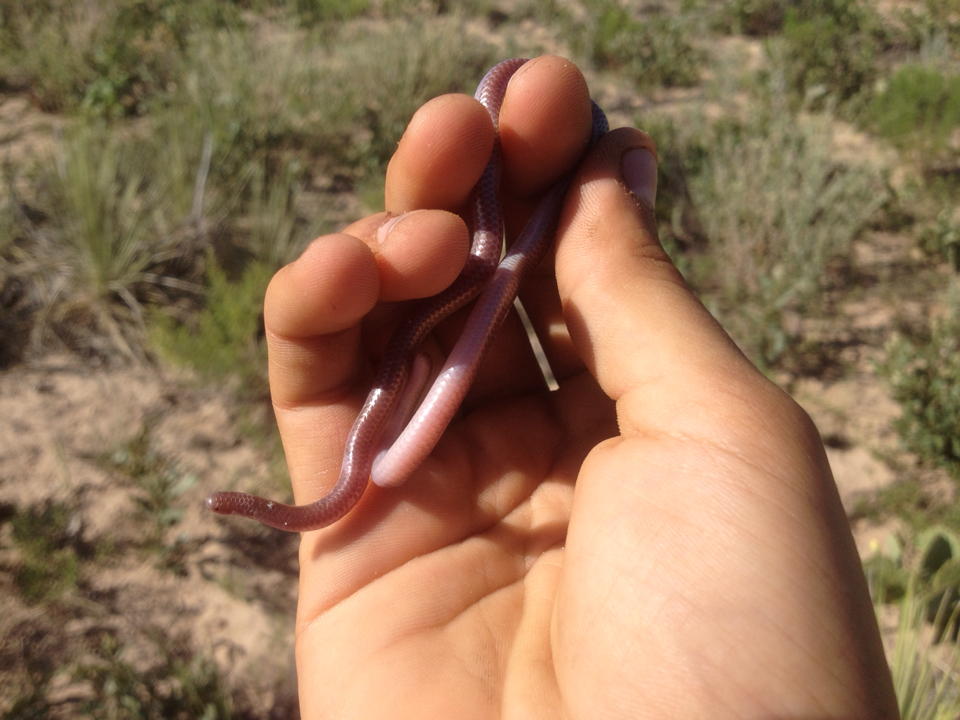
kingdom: Animalia
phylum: Chordata
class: Squamata
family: Leptotyphlopidae
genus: Rena
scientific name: Rena dulcis
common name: Texas blind snake
